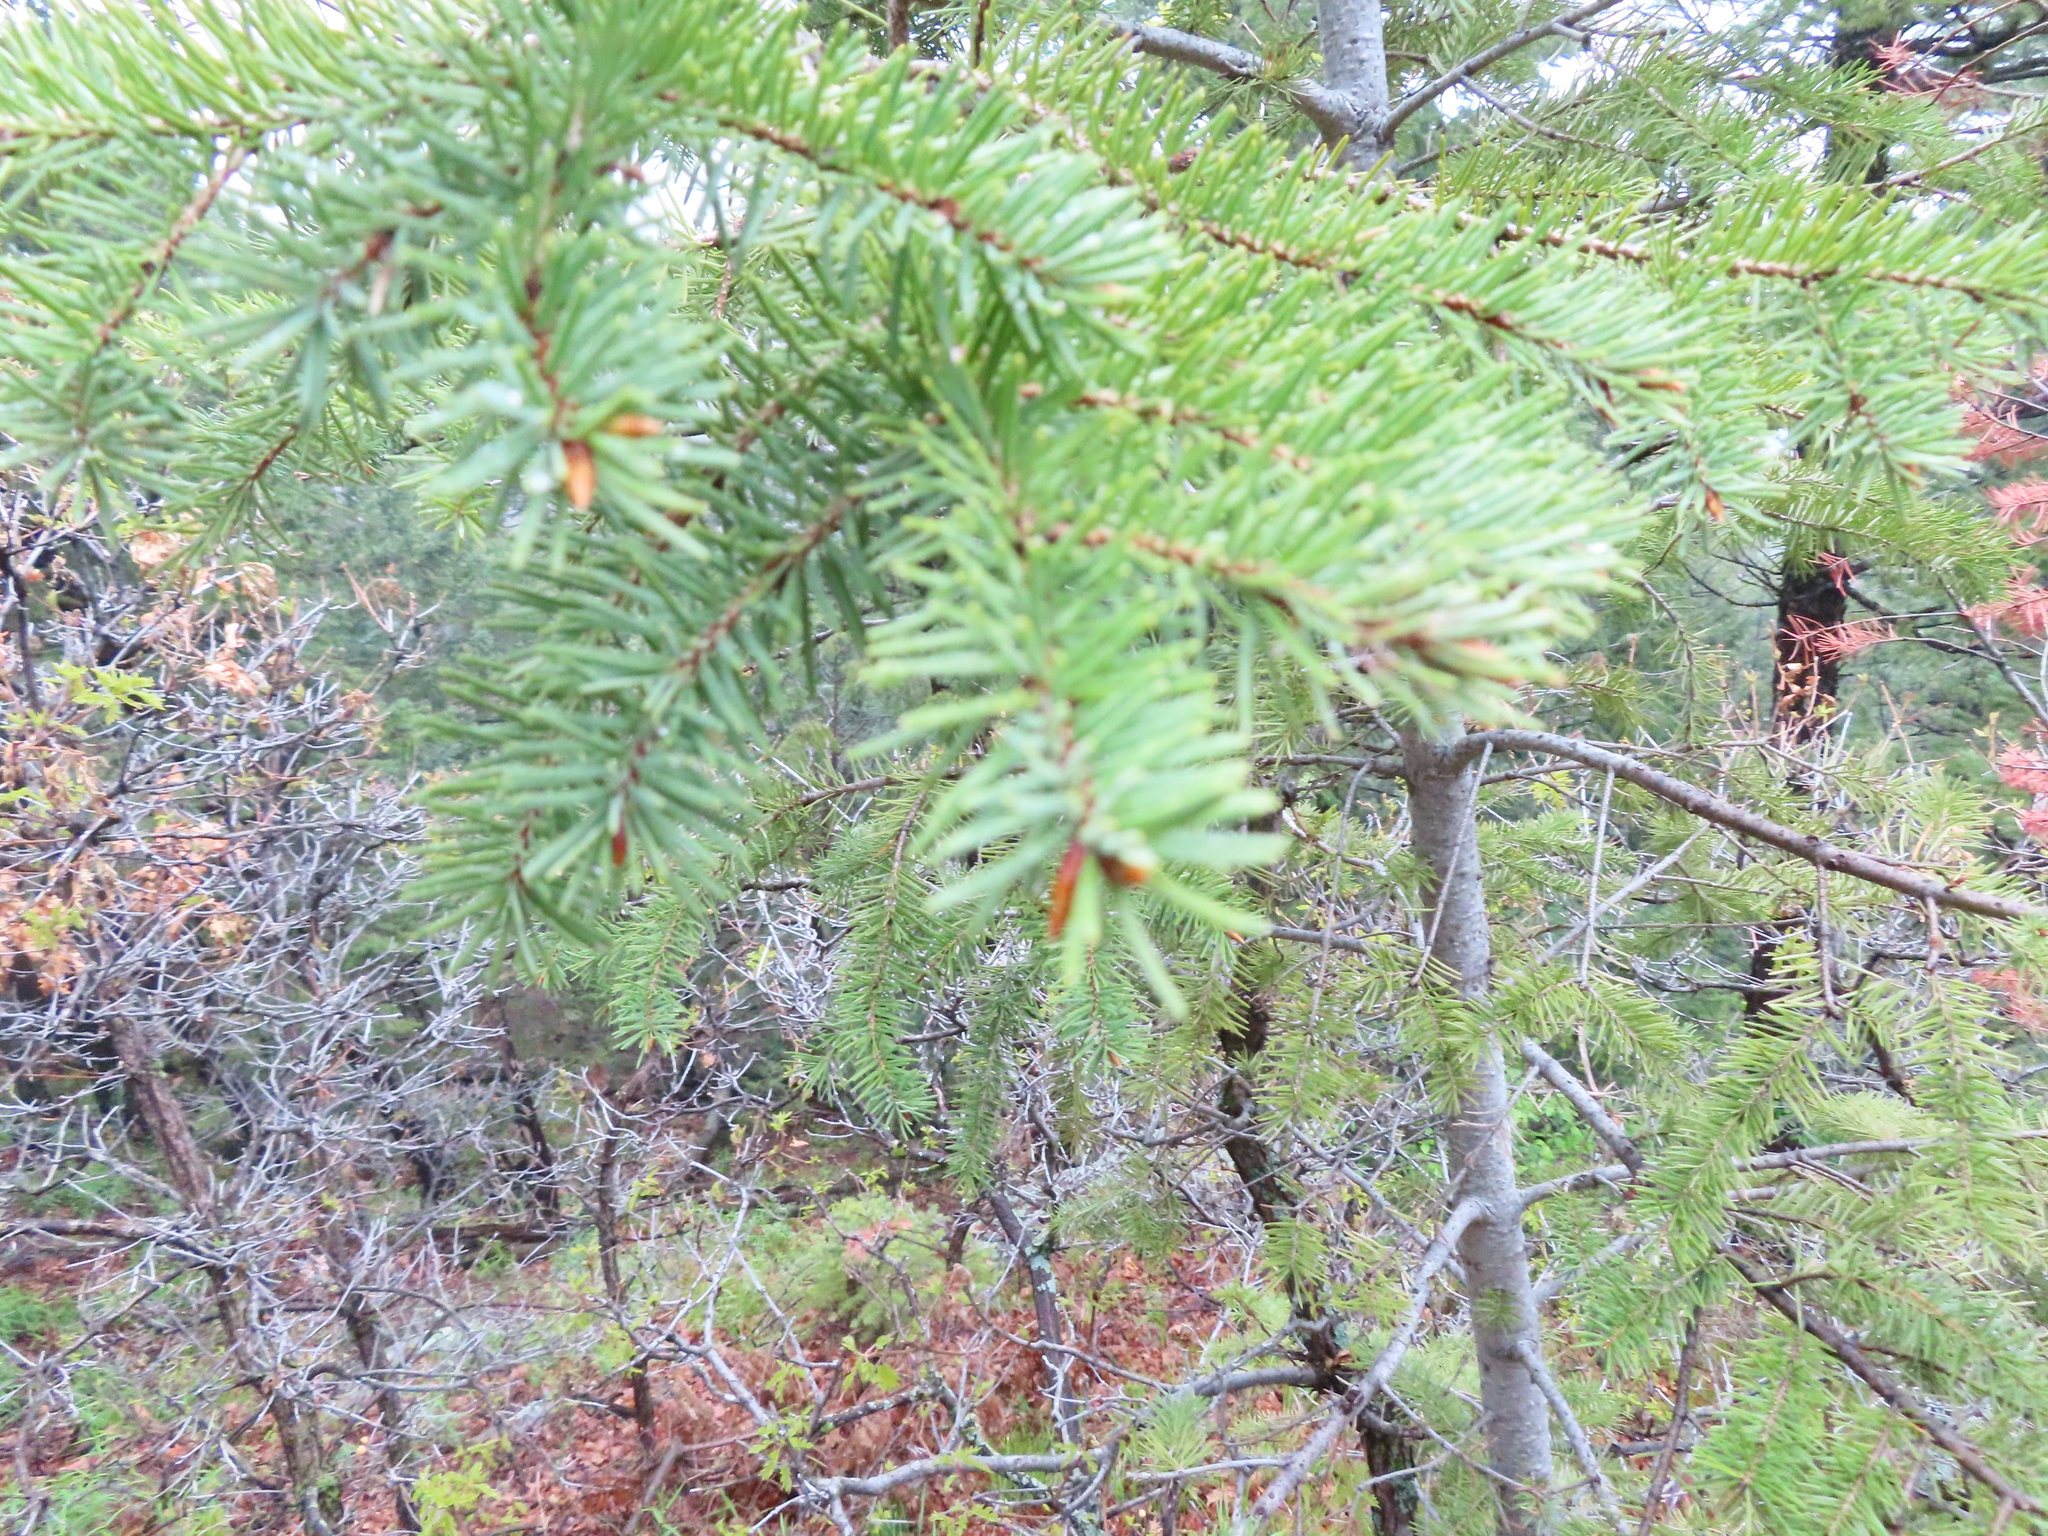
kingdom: Plantae
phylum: Tracheophyta
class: Pinopsida
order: Pinales
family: Pinaceae
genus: Pseudotsuga
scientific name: Pseudotsuga menziesii
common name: Douglas fir
